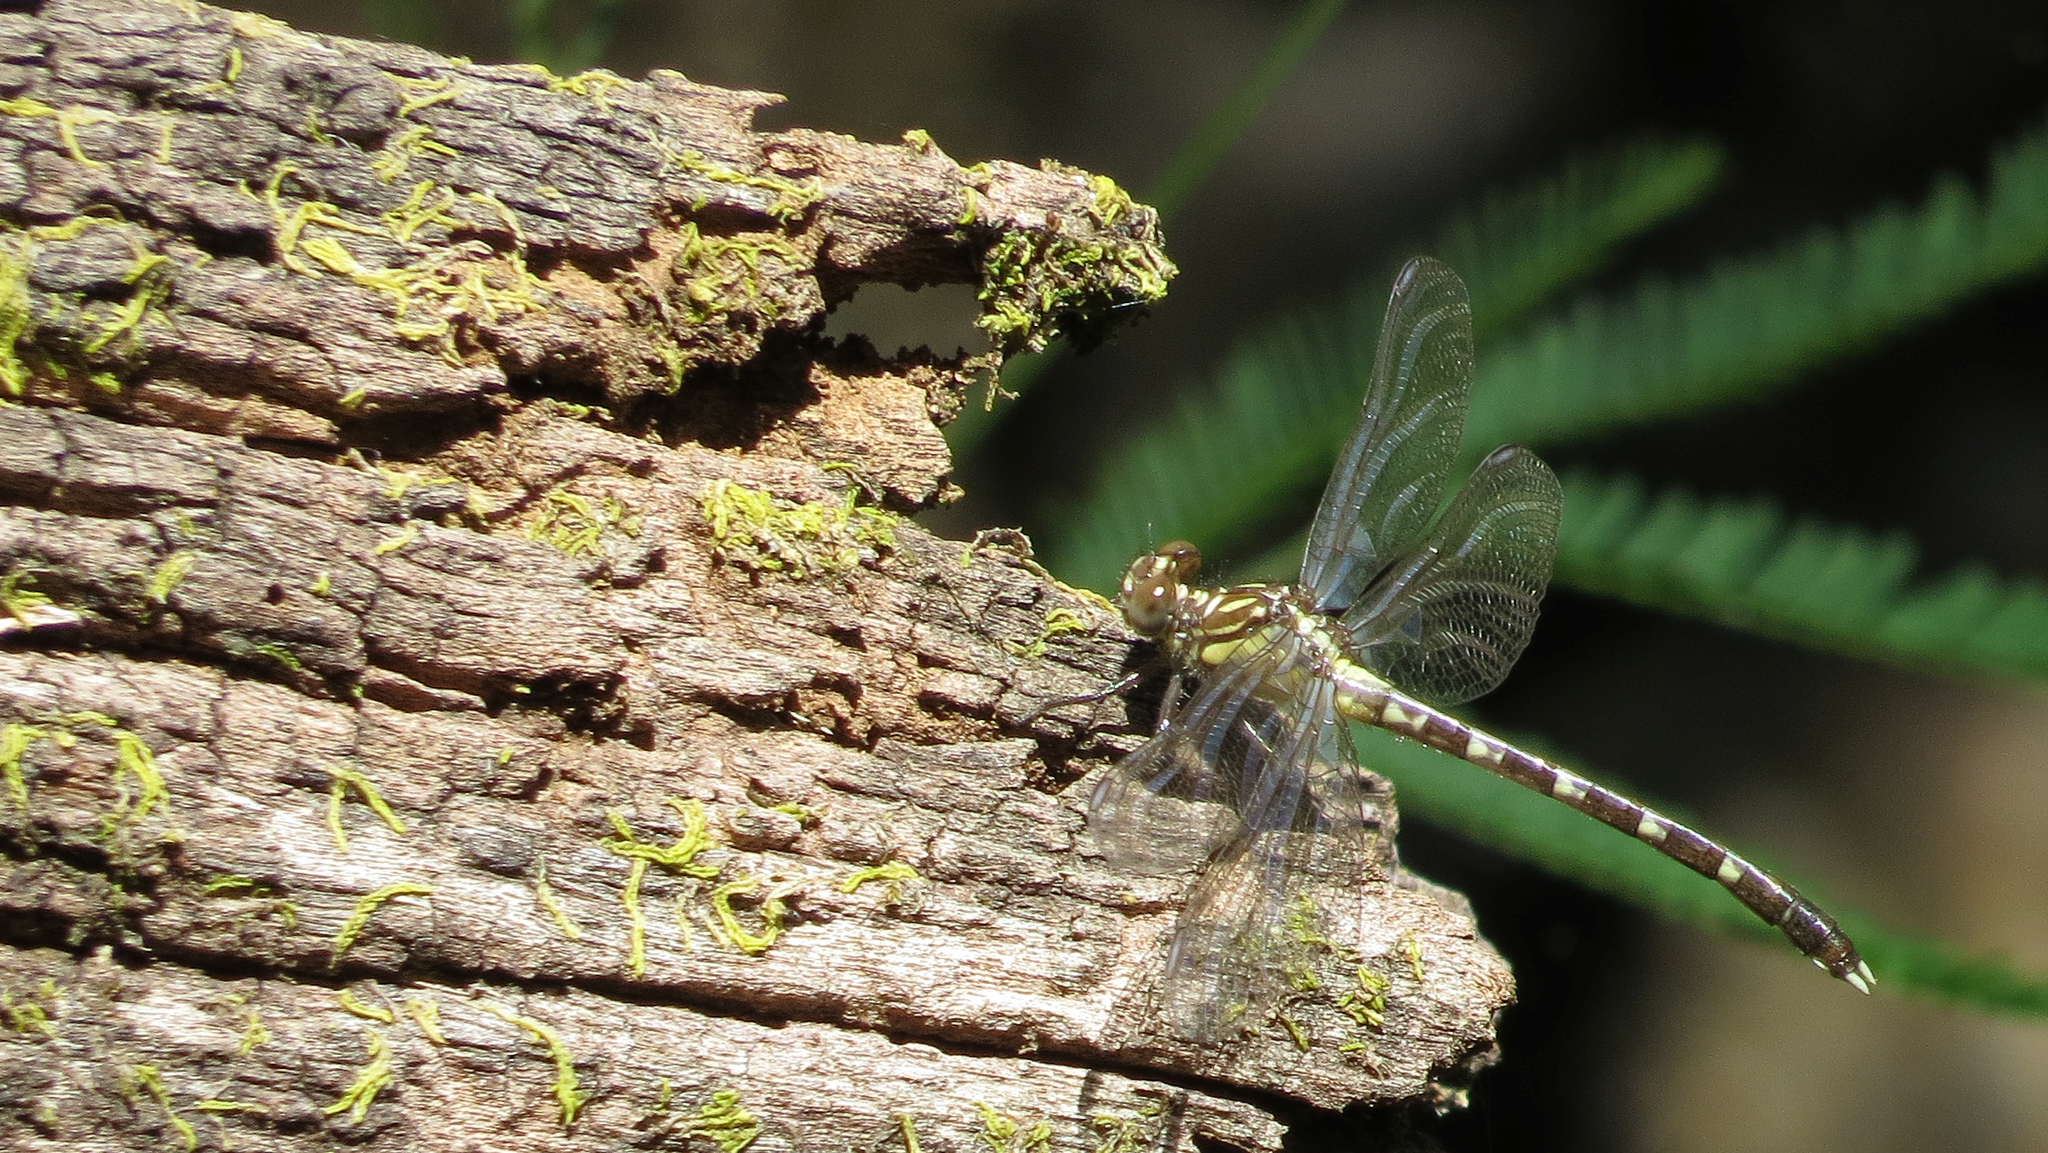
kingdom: Animalia
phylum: Arthropoda
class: Insecta
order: Odonata
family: Gomphidae
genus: Hemigomphus
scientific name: Hemigomphus gouldii
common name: Southern vicetail
